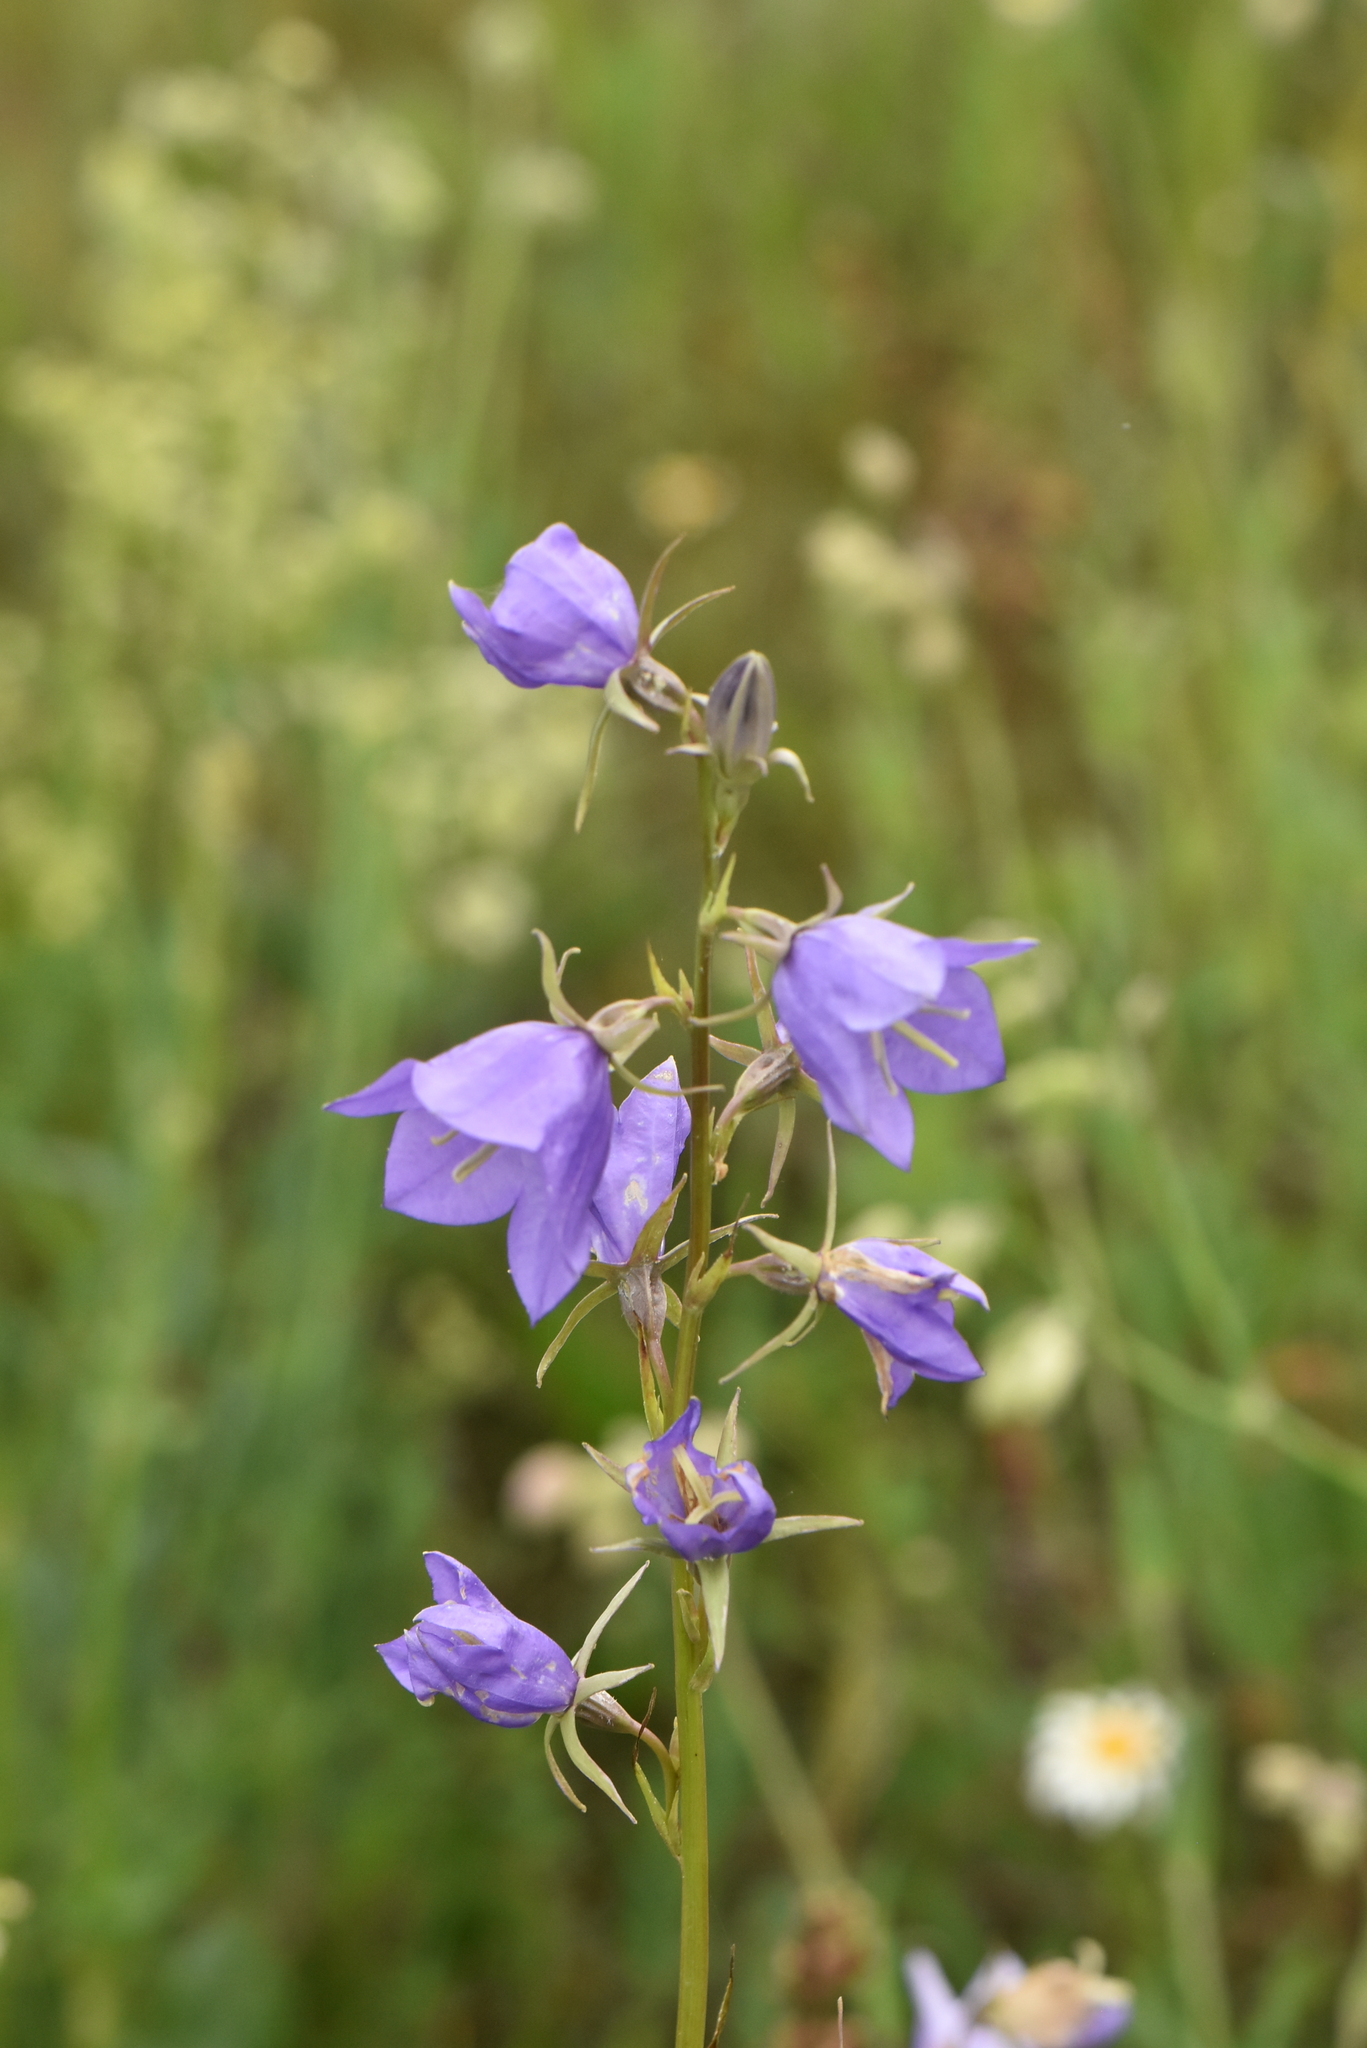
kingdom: Plantae
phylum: Tracheophyta
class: Magnoliopsida
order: Asterales
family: Campanulaceae
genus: Campanula
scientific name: Campanula persicifolia
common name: Peach-leaved bellflower
